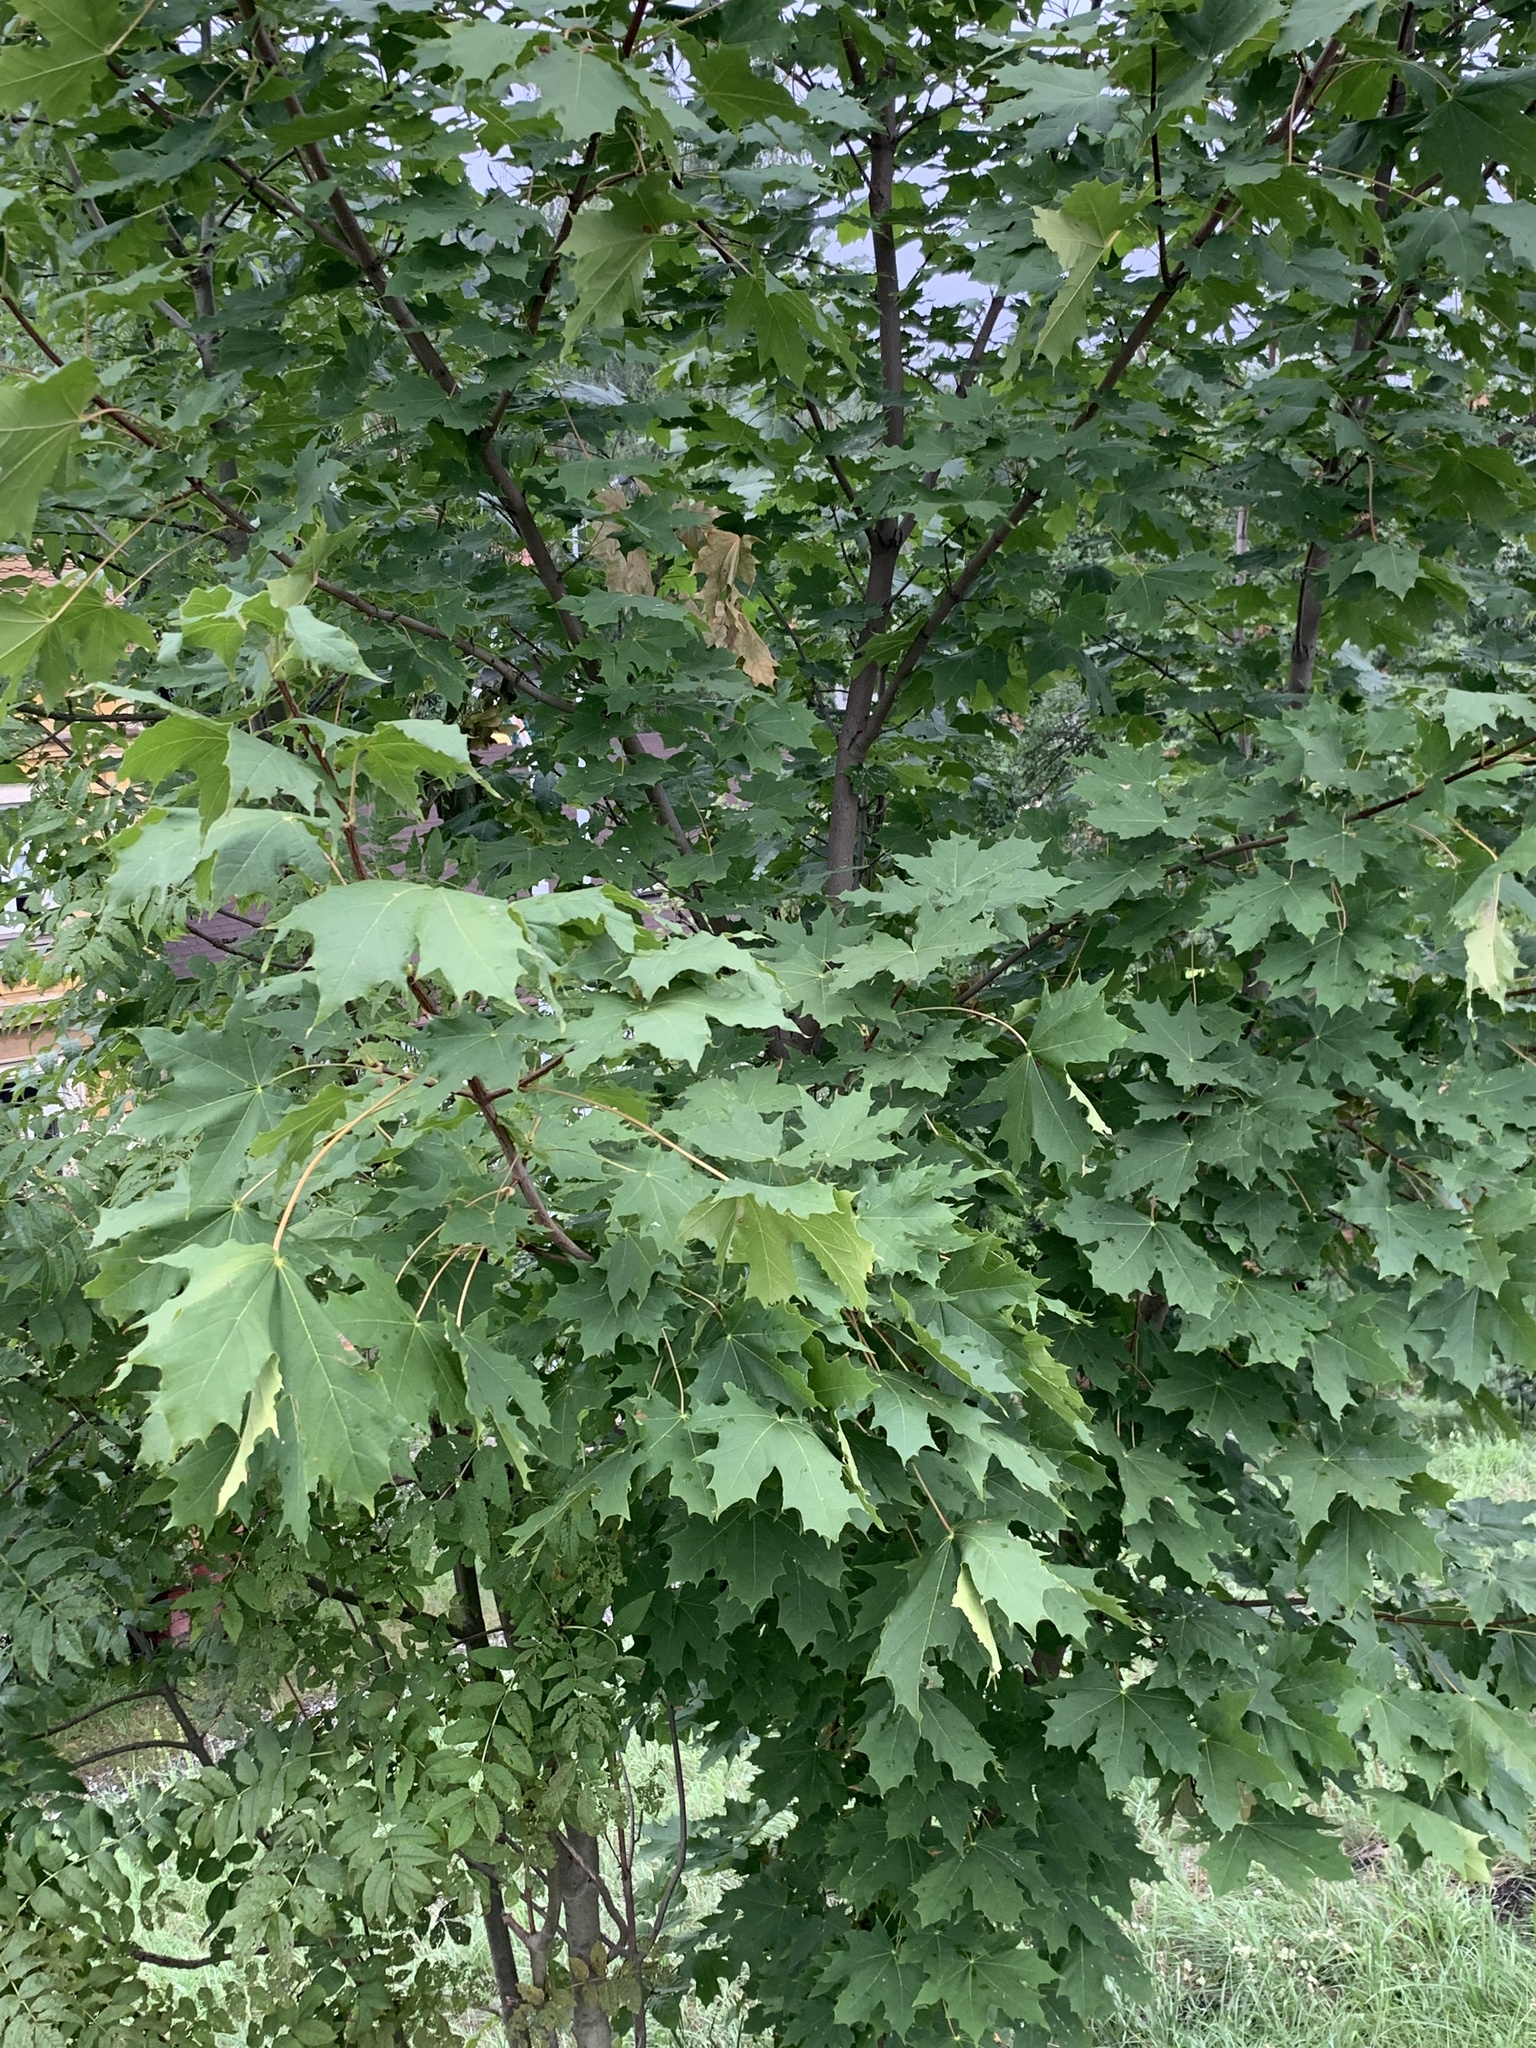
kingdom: Plantae
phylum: Tracheophyta
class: Magnoliopsida
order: Sapindales
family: Sapindaceae
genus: Acer
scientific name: Acer platanoides
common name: Norway maple
